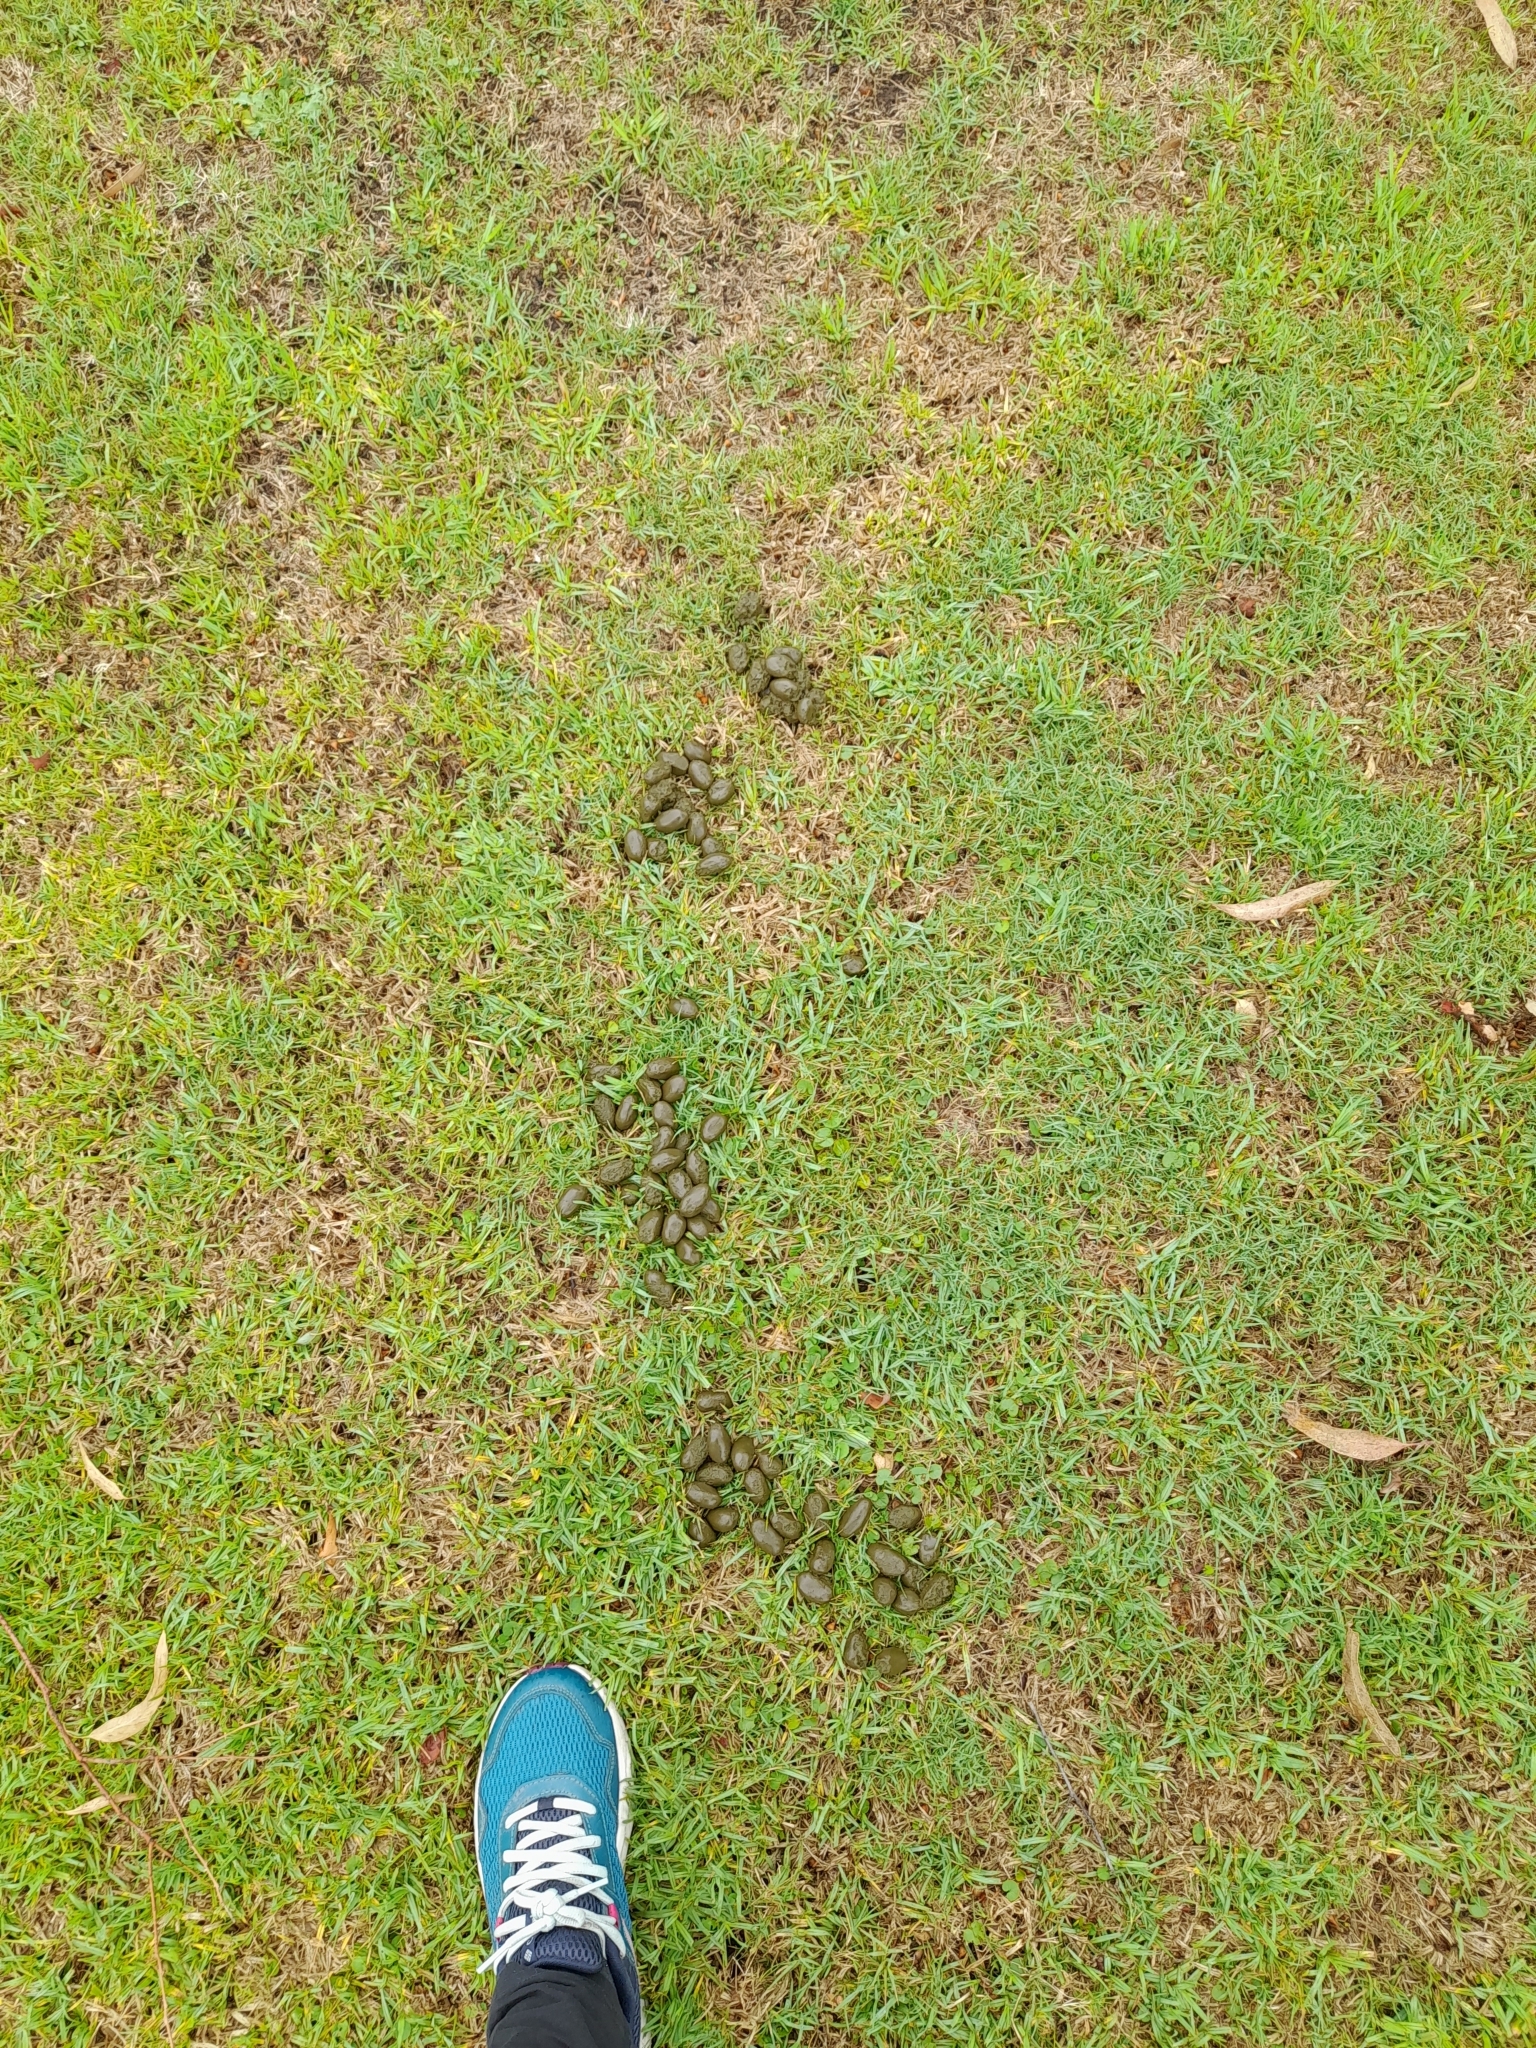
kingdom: Animalia
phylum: Chordata
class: Mammalia
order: Rodentia
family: Caviidae
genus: Hydrochoerus
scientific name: Hydrochoerus hydrochaeris
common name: Capybara
